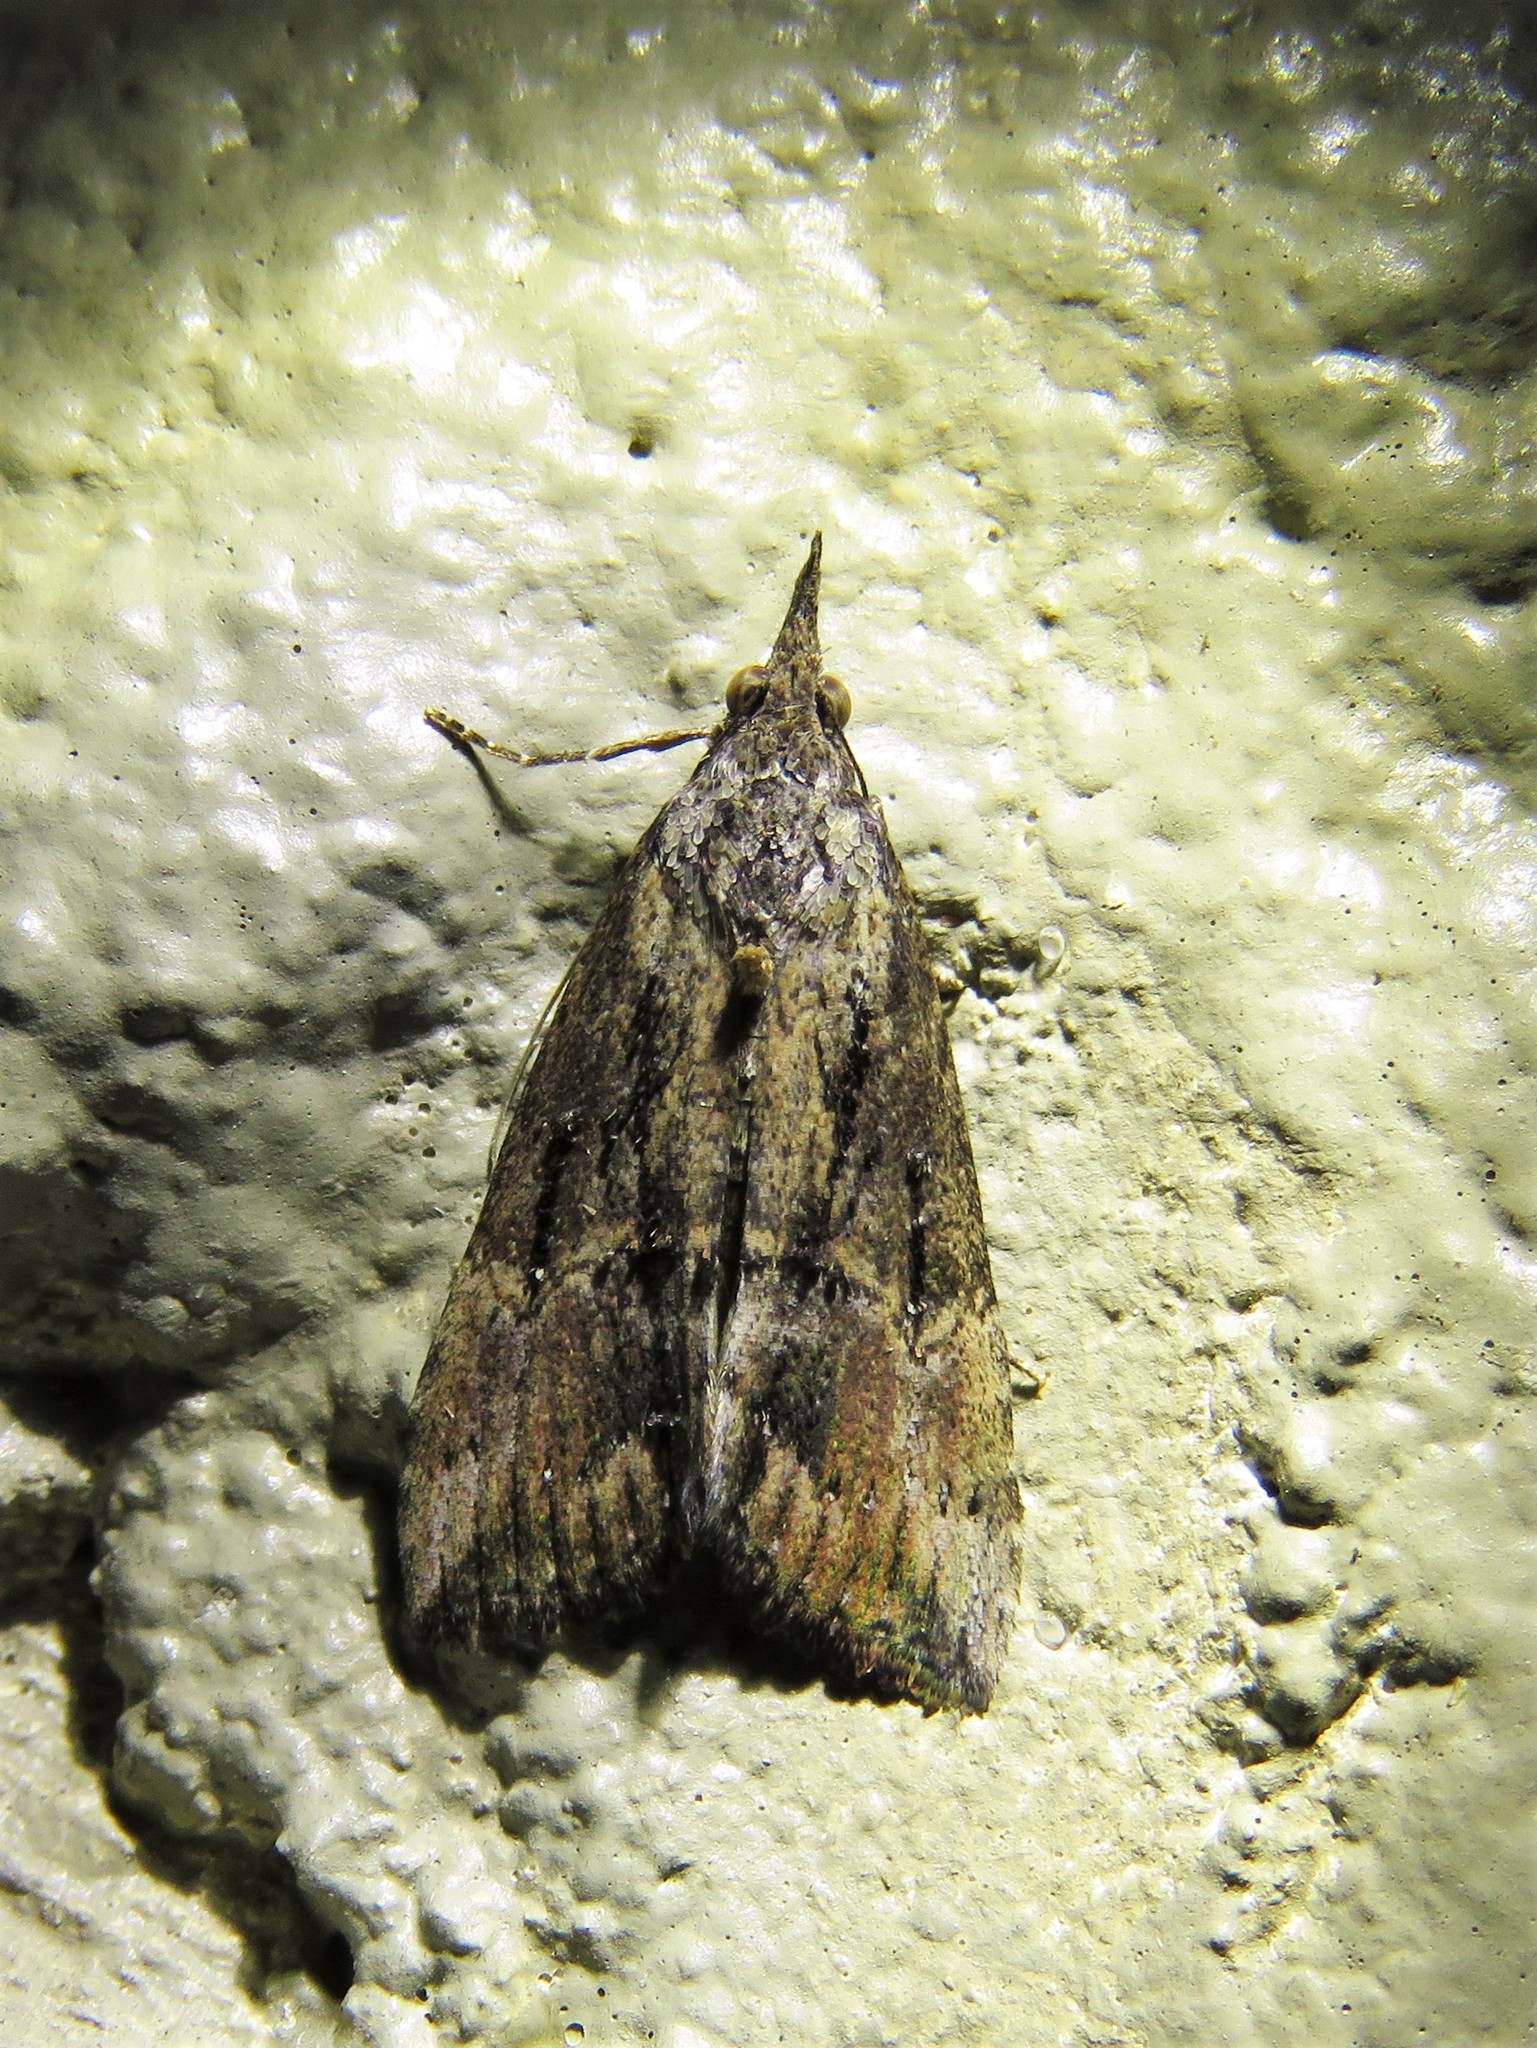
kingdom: Animalia
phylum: Arthropoda
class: Insecta
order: Lepidoptera
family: Erebidae
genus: Hypena
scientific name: Hypena scabra
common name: Green cloverworm
